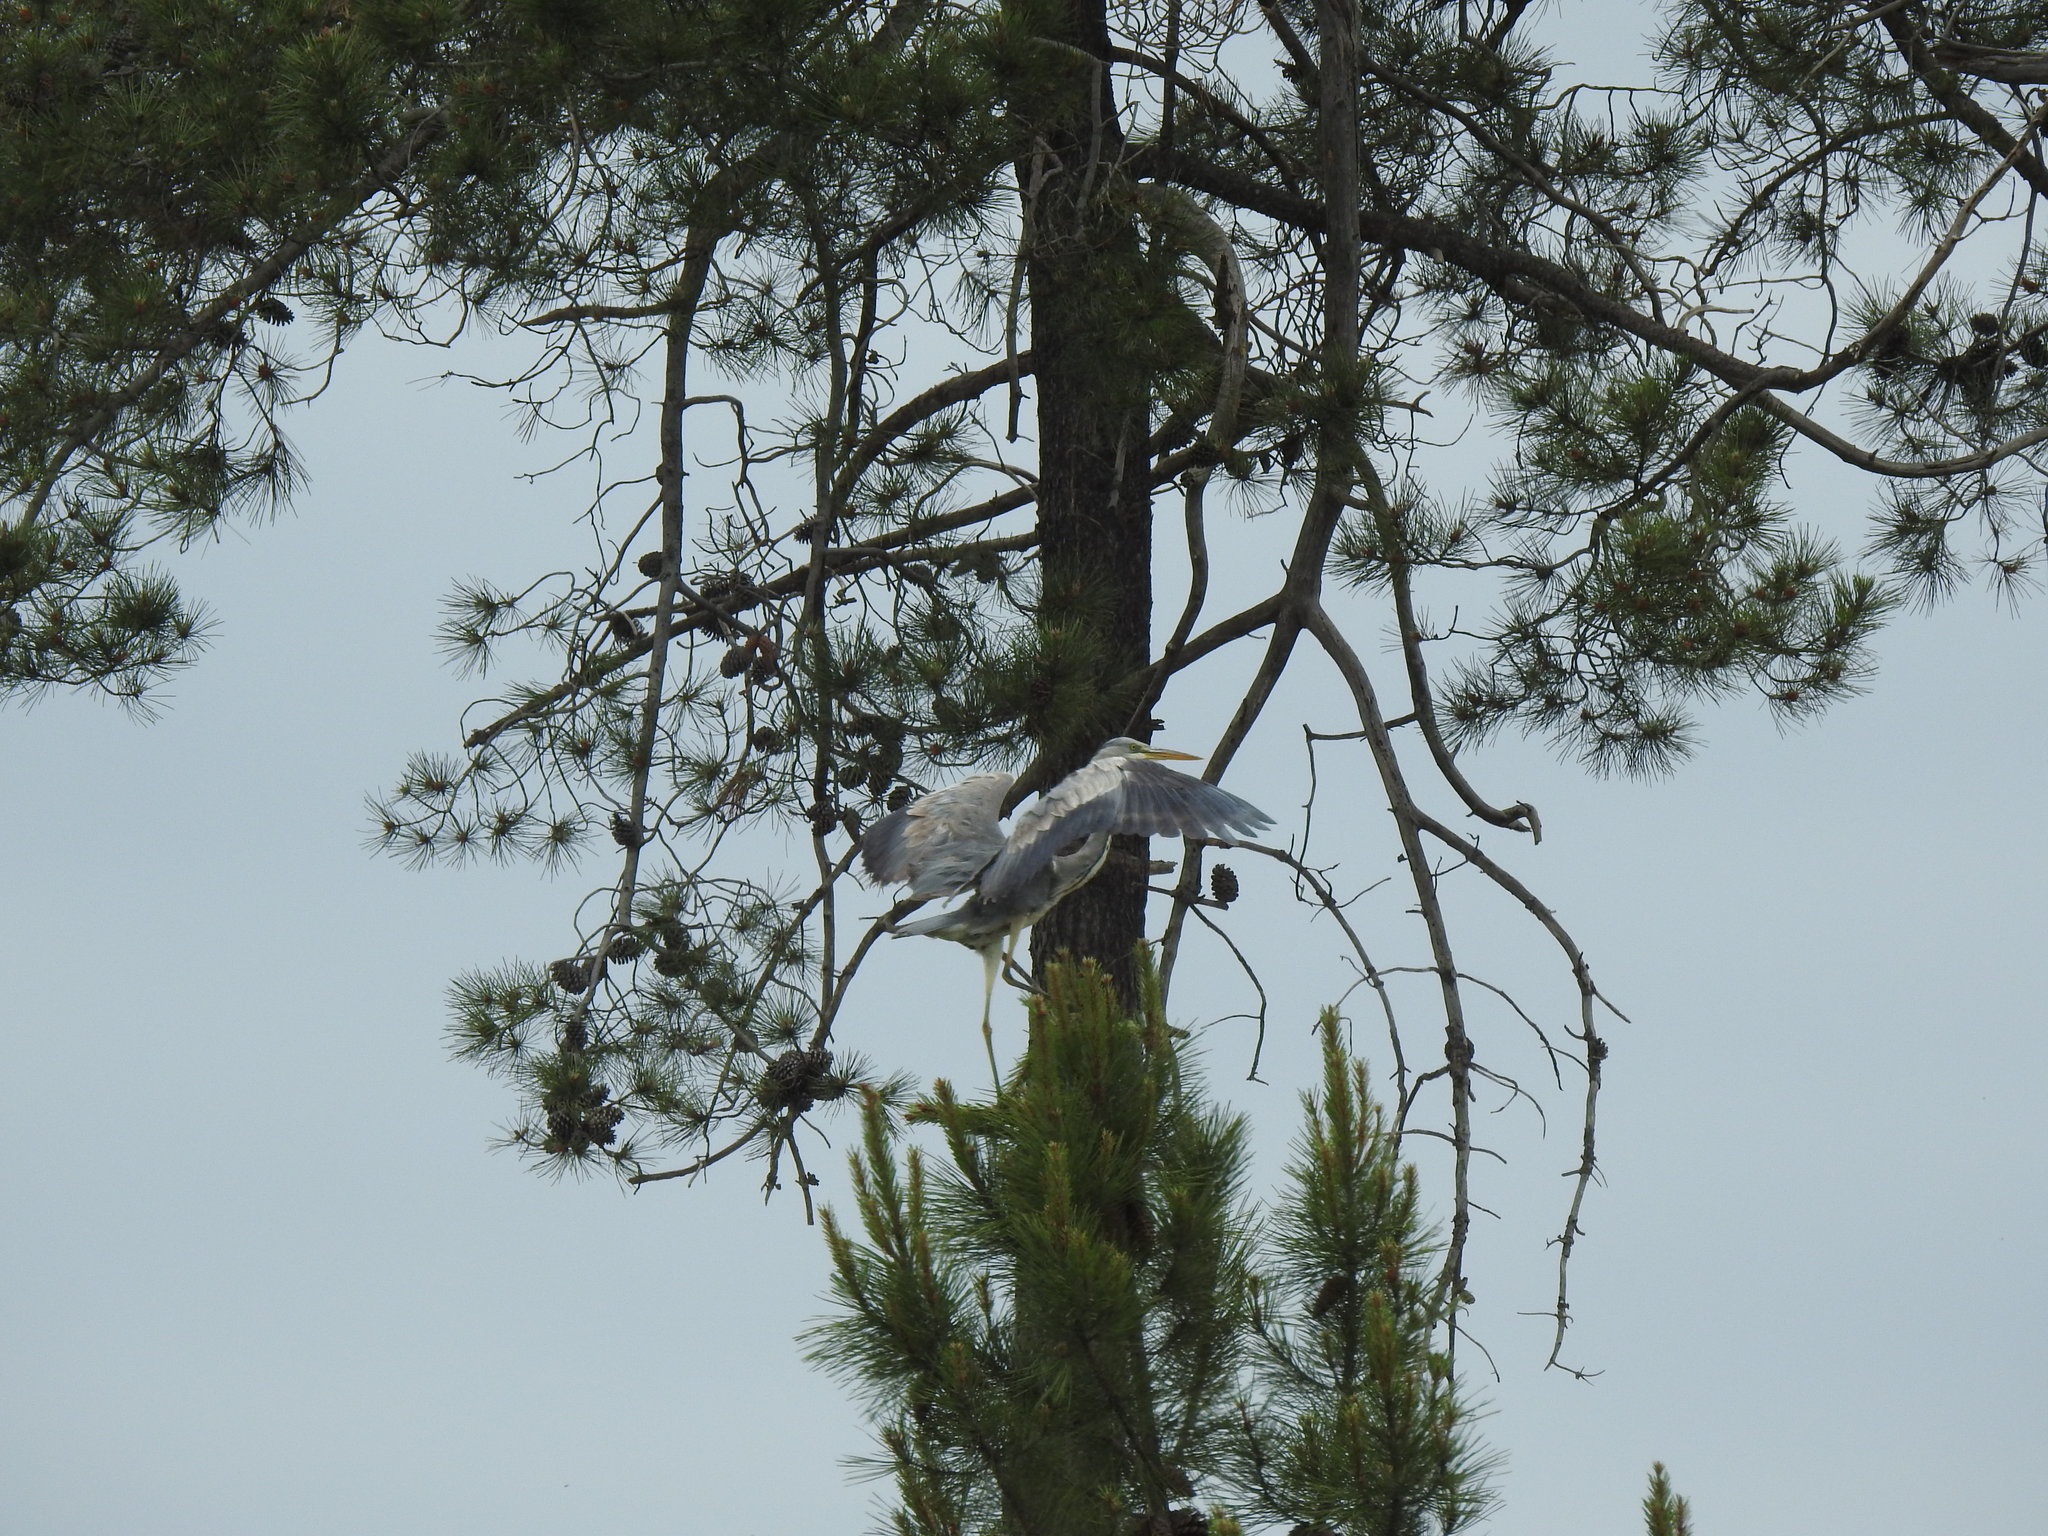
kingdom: Animalia
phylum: Chordata
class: Aves
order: Pelecaniformes
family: Ardeidae
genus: Ardea
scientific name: Ardea cinerea
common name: Grey heron
